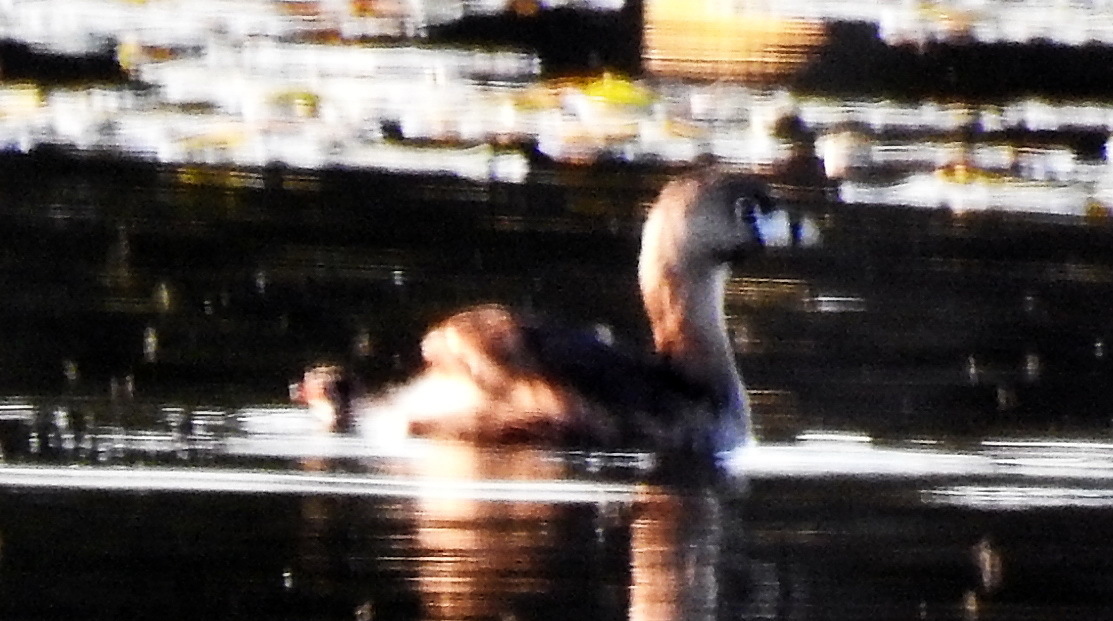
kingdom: Animalia
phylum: Chordata
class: Aves
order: Podicipediformes
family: Podicipedidae
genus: Podilymbus
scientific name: Podilymbus podiceps
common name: Pied-billed grebe
